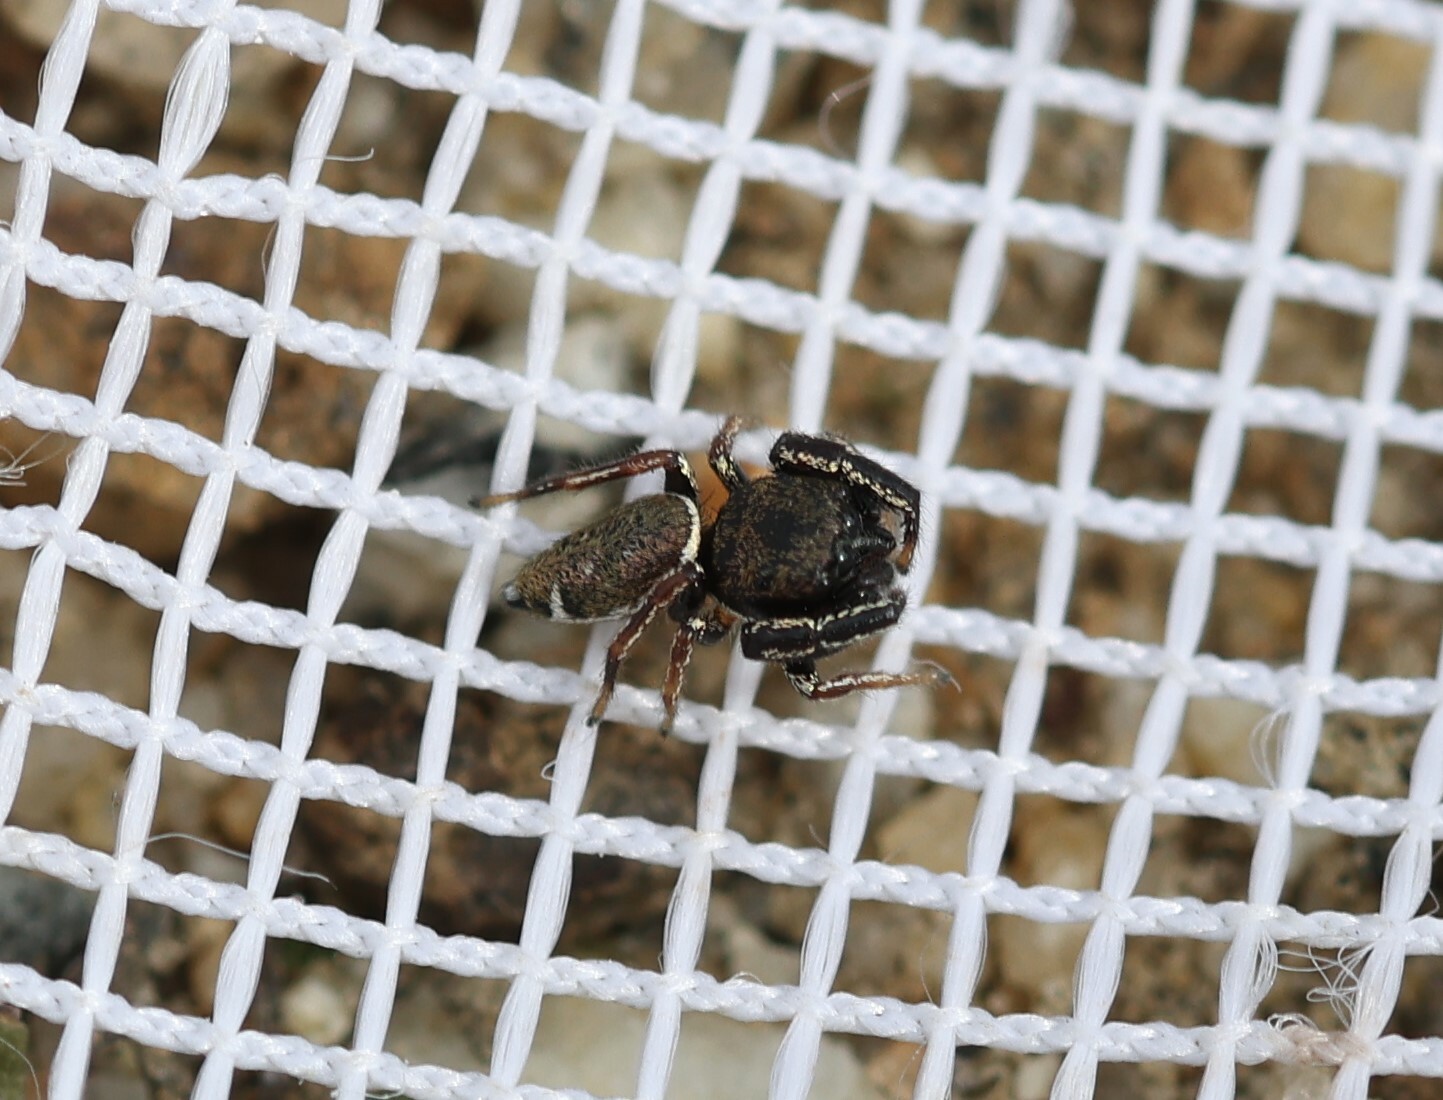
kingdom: Animalia
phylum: Arthropoda
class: Arachnida
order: Araneae
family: Salticidae
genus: Sassacus
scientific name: Sassacus vitis
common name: Jumping spiders
